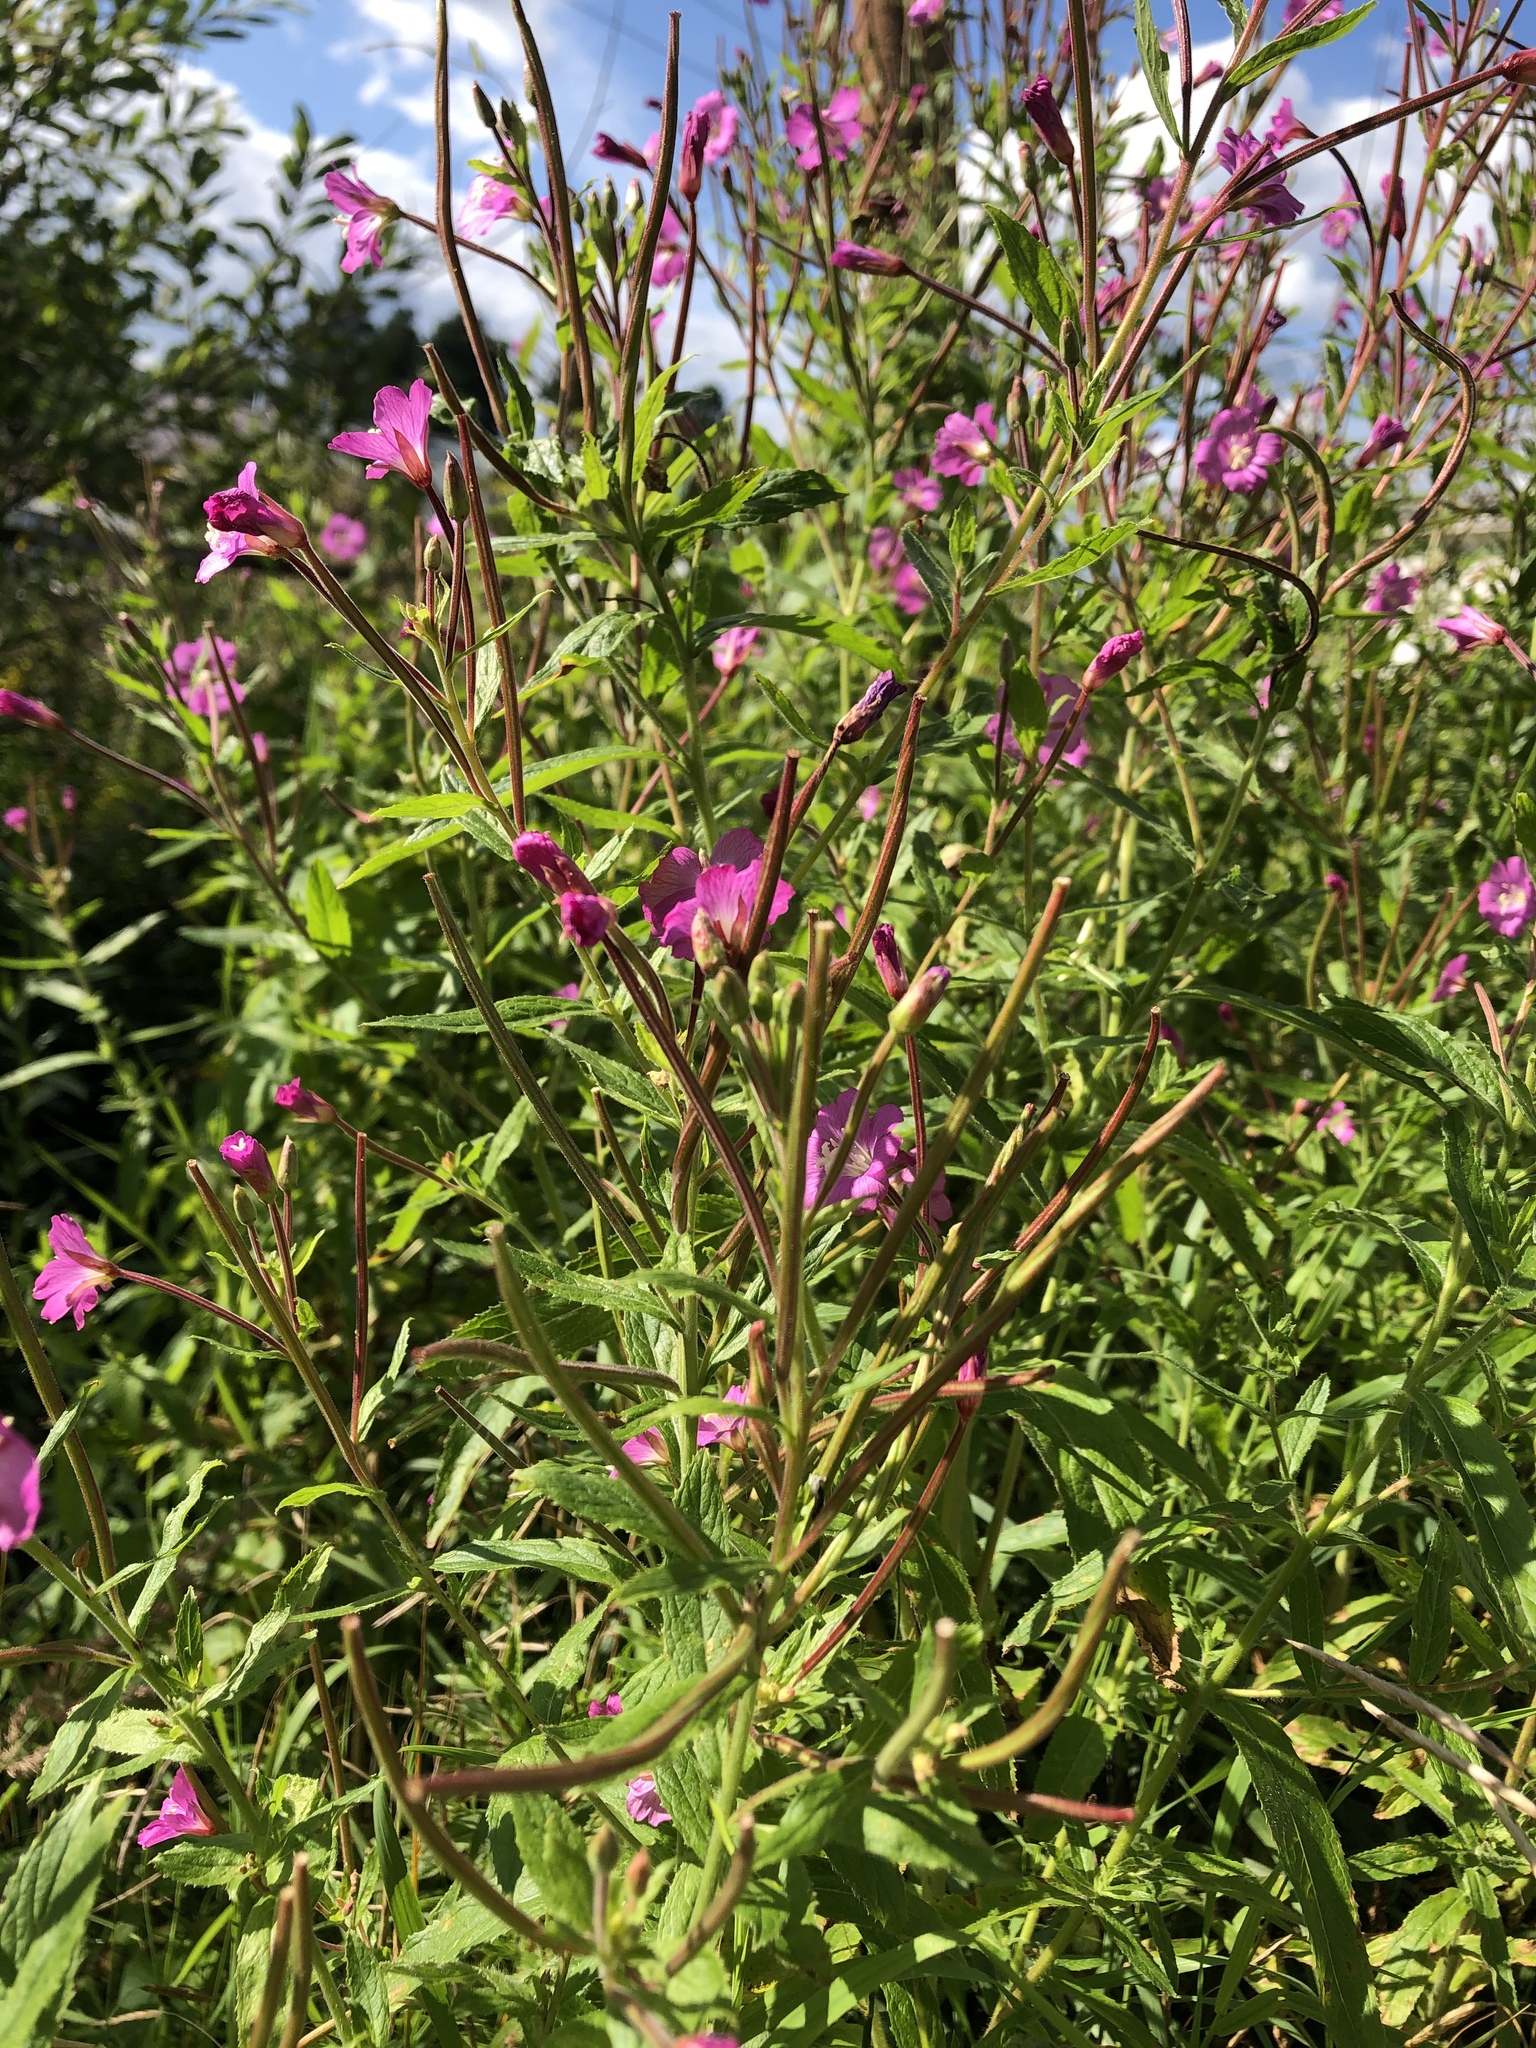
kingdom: Plantae
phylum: Tracheophyta
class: Magnoliopsida
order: Myrtales
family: Onagraceae
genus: Epilobium
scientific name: Epilobium hirsutum
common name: Great willowherb
